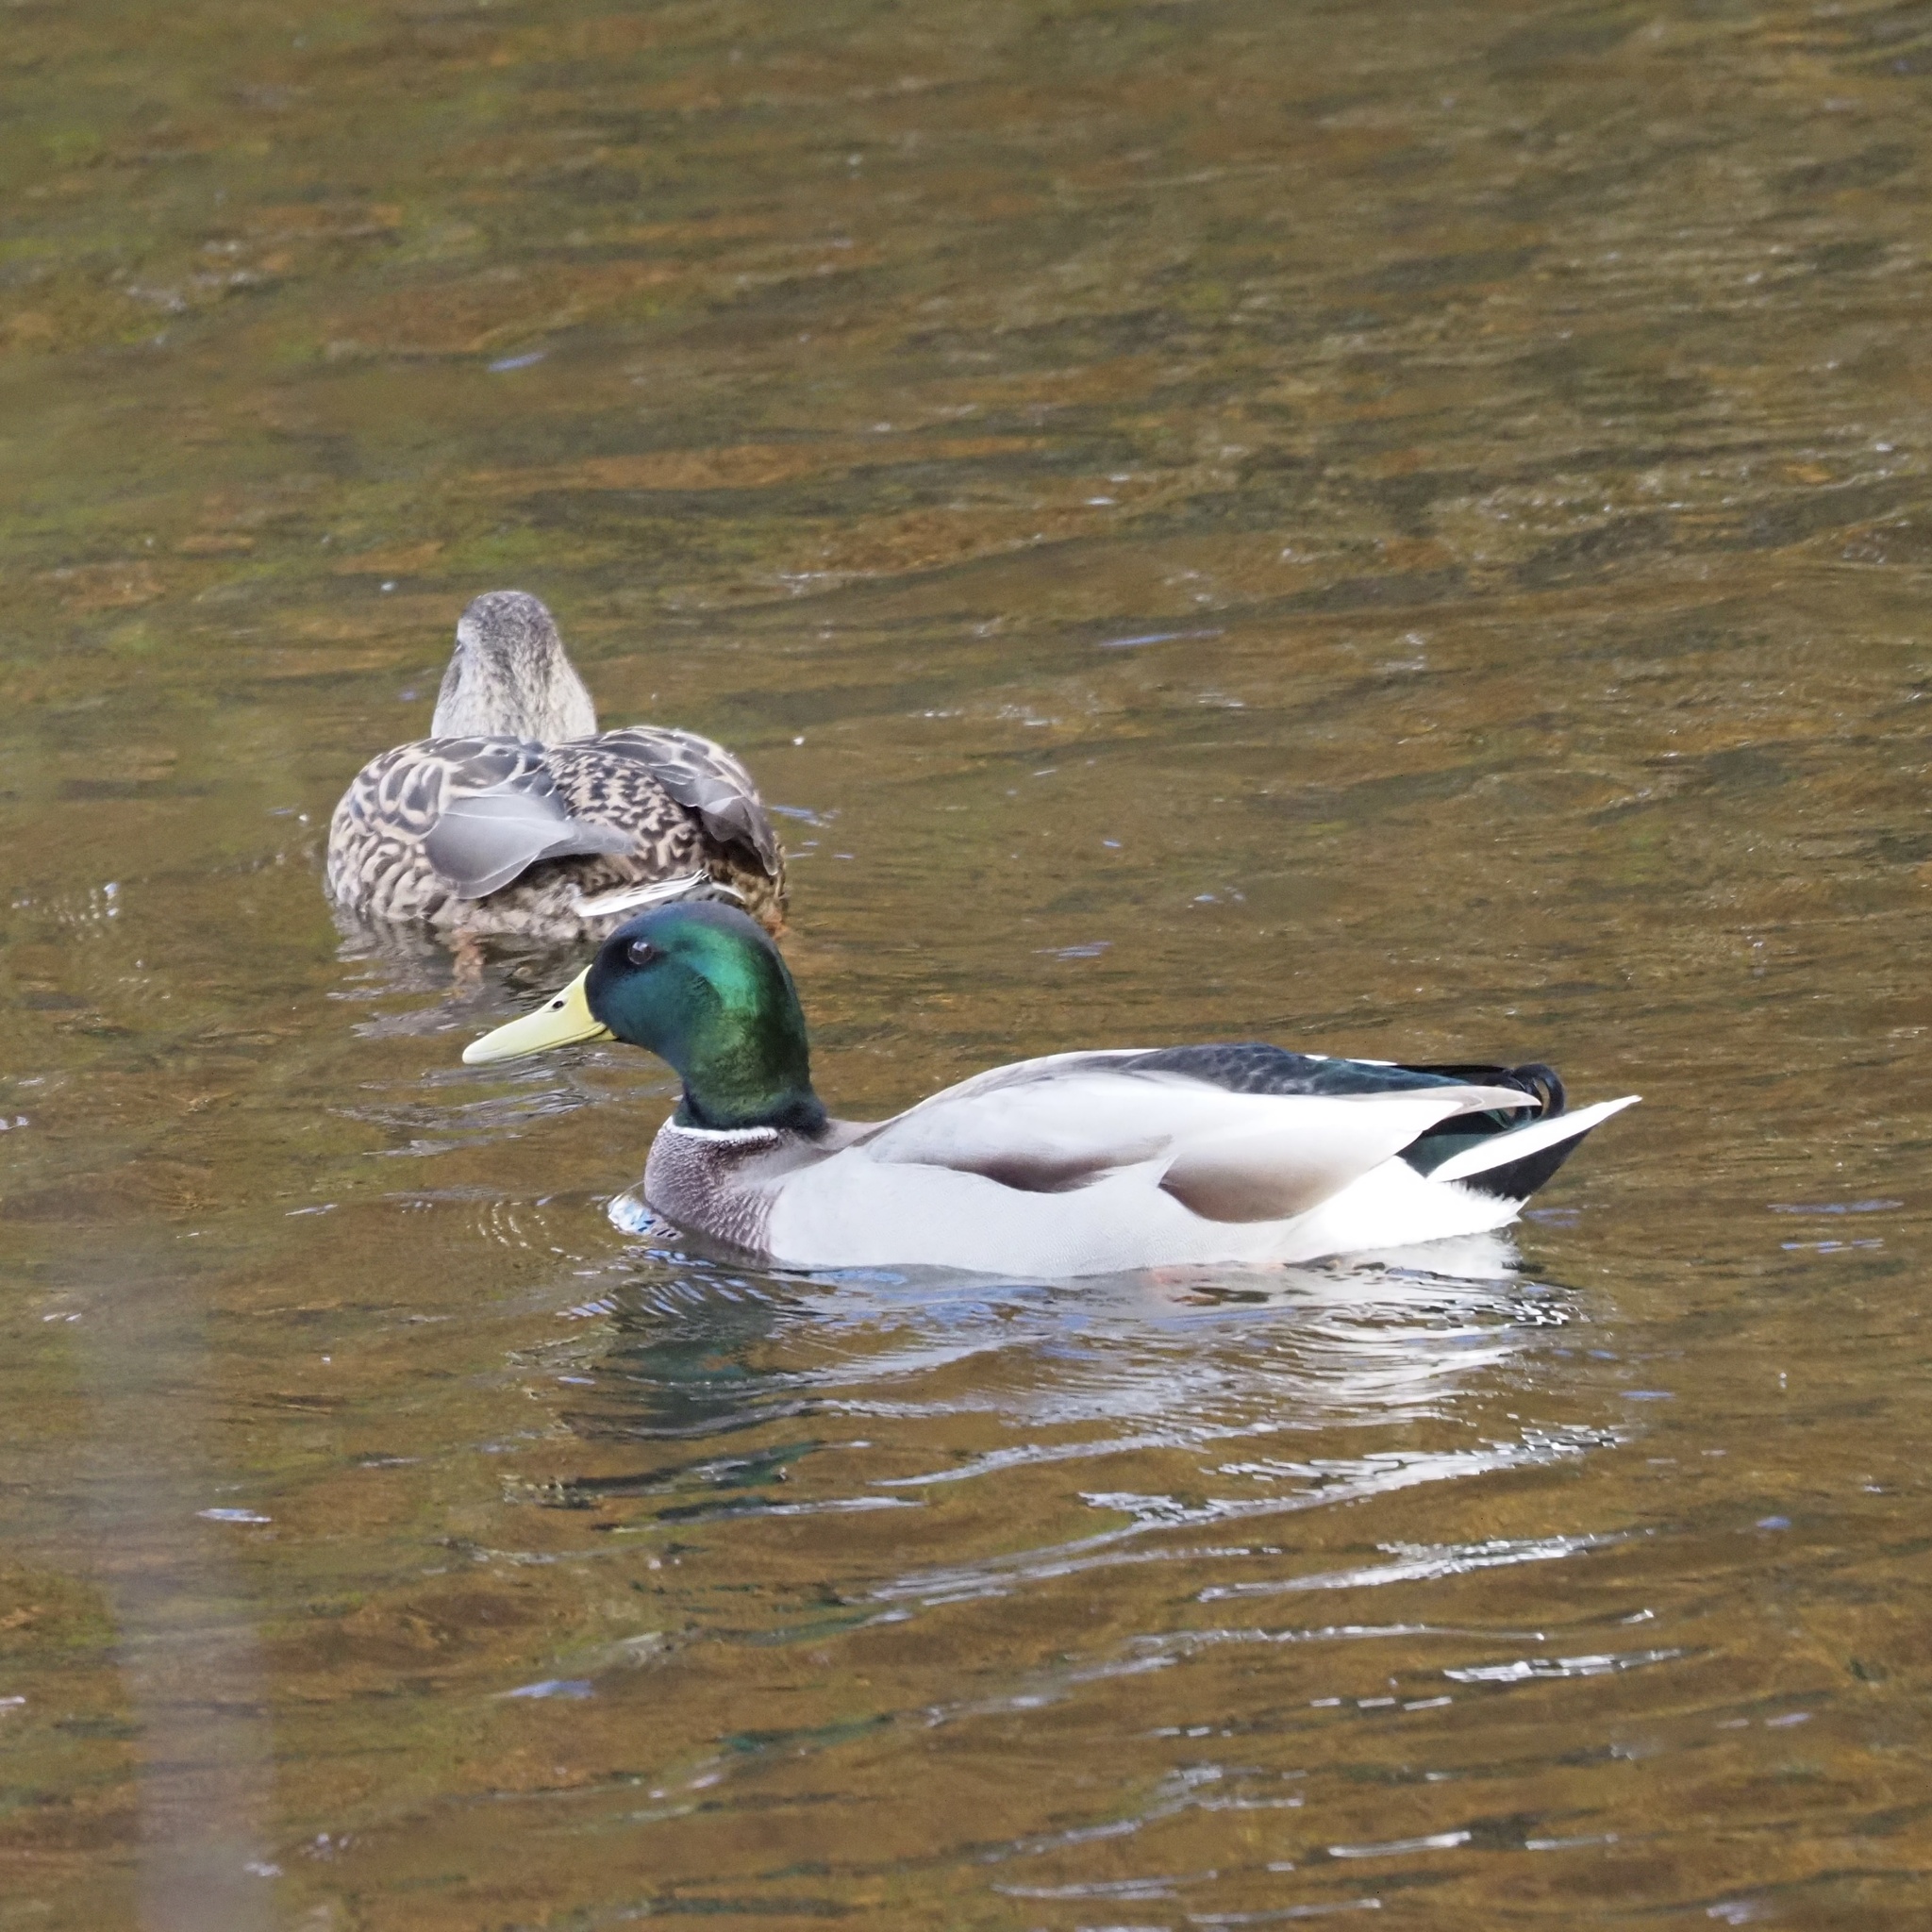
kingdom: Animalia
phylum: Chordata
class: Aves
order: Anseriformes
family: Anatidae
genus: Anas
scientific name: Anas platyrhynchos
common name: Mallard
